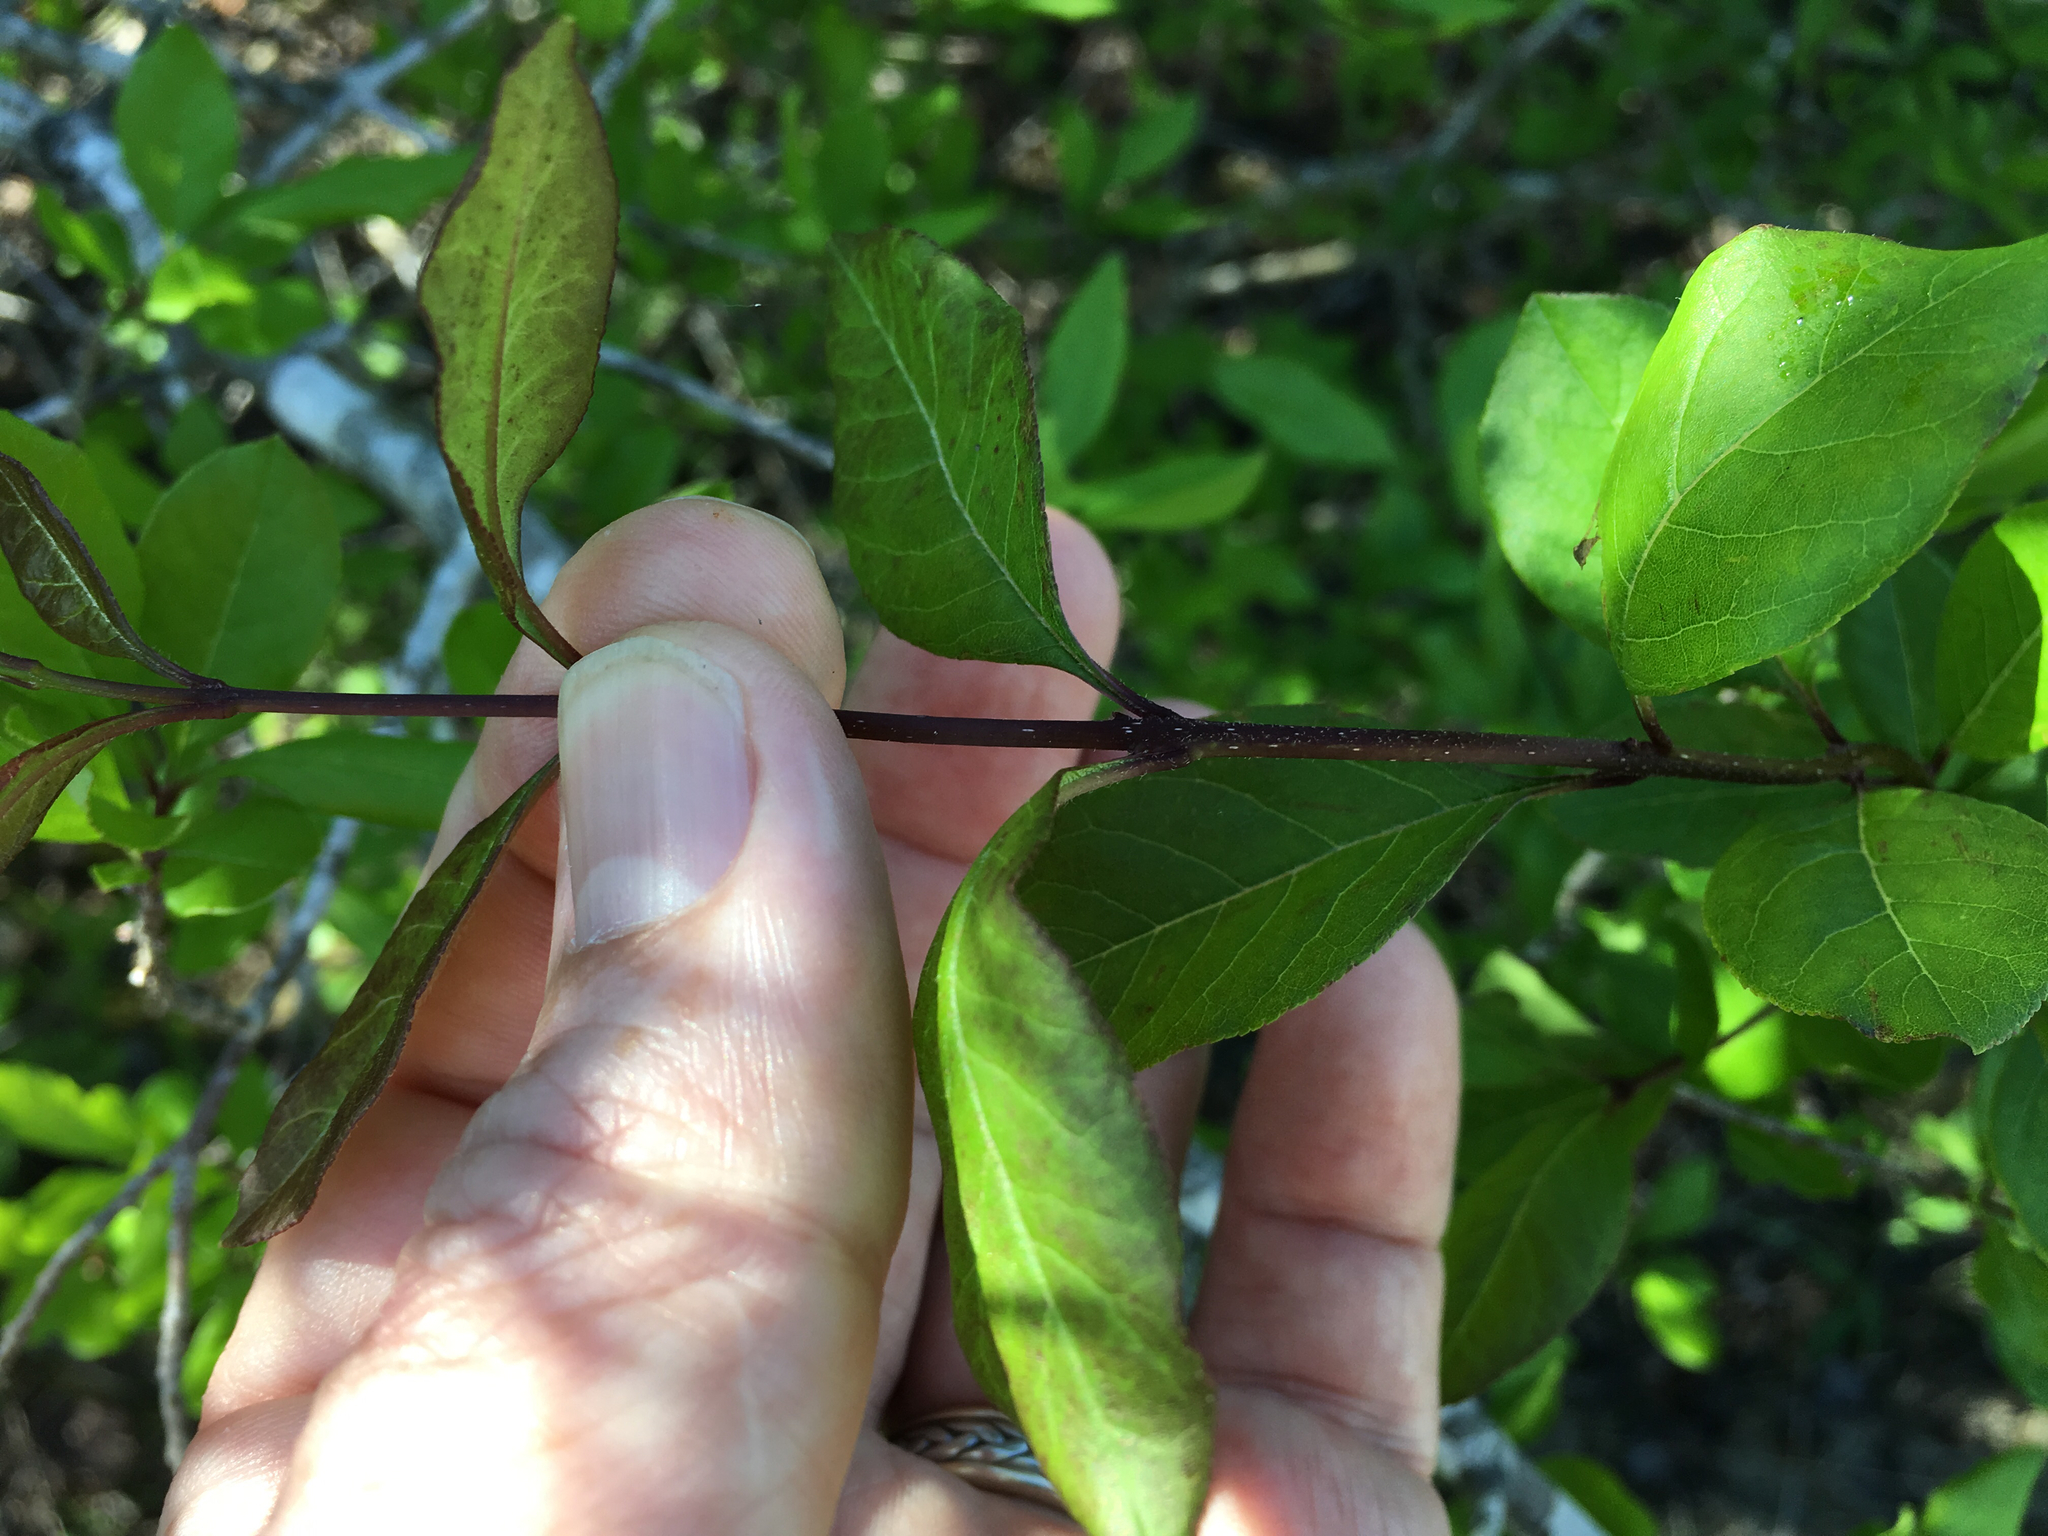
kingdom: Plantae
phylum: Tracheophyta
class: Magnoliopsida
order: Lamiales
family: Oleaceae
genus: Forestiera
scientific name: Forestiera ligustrina
